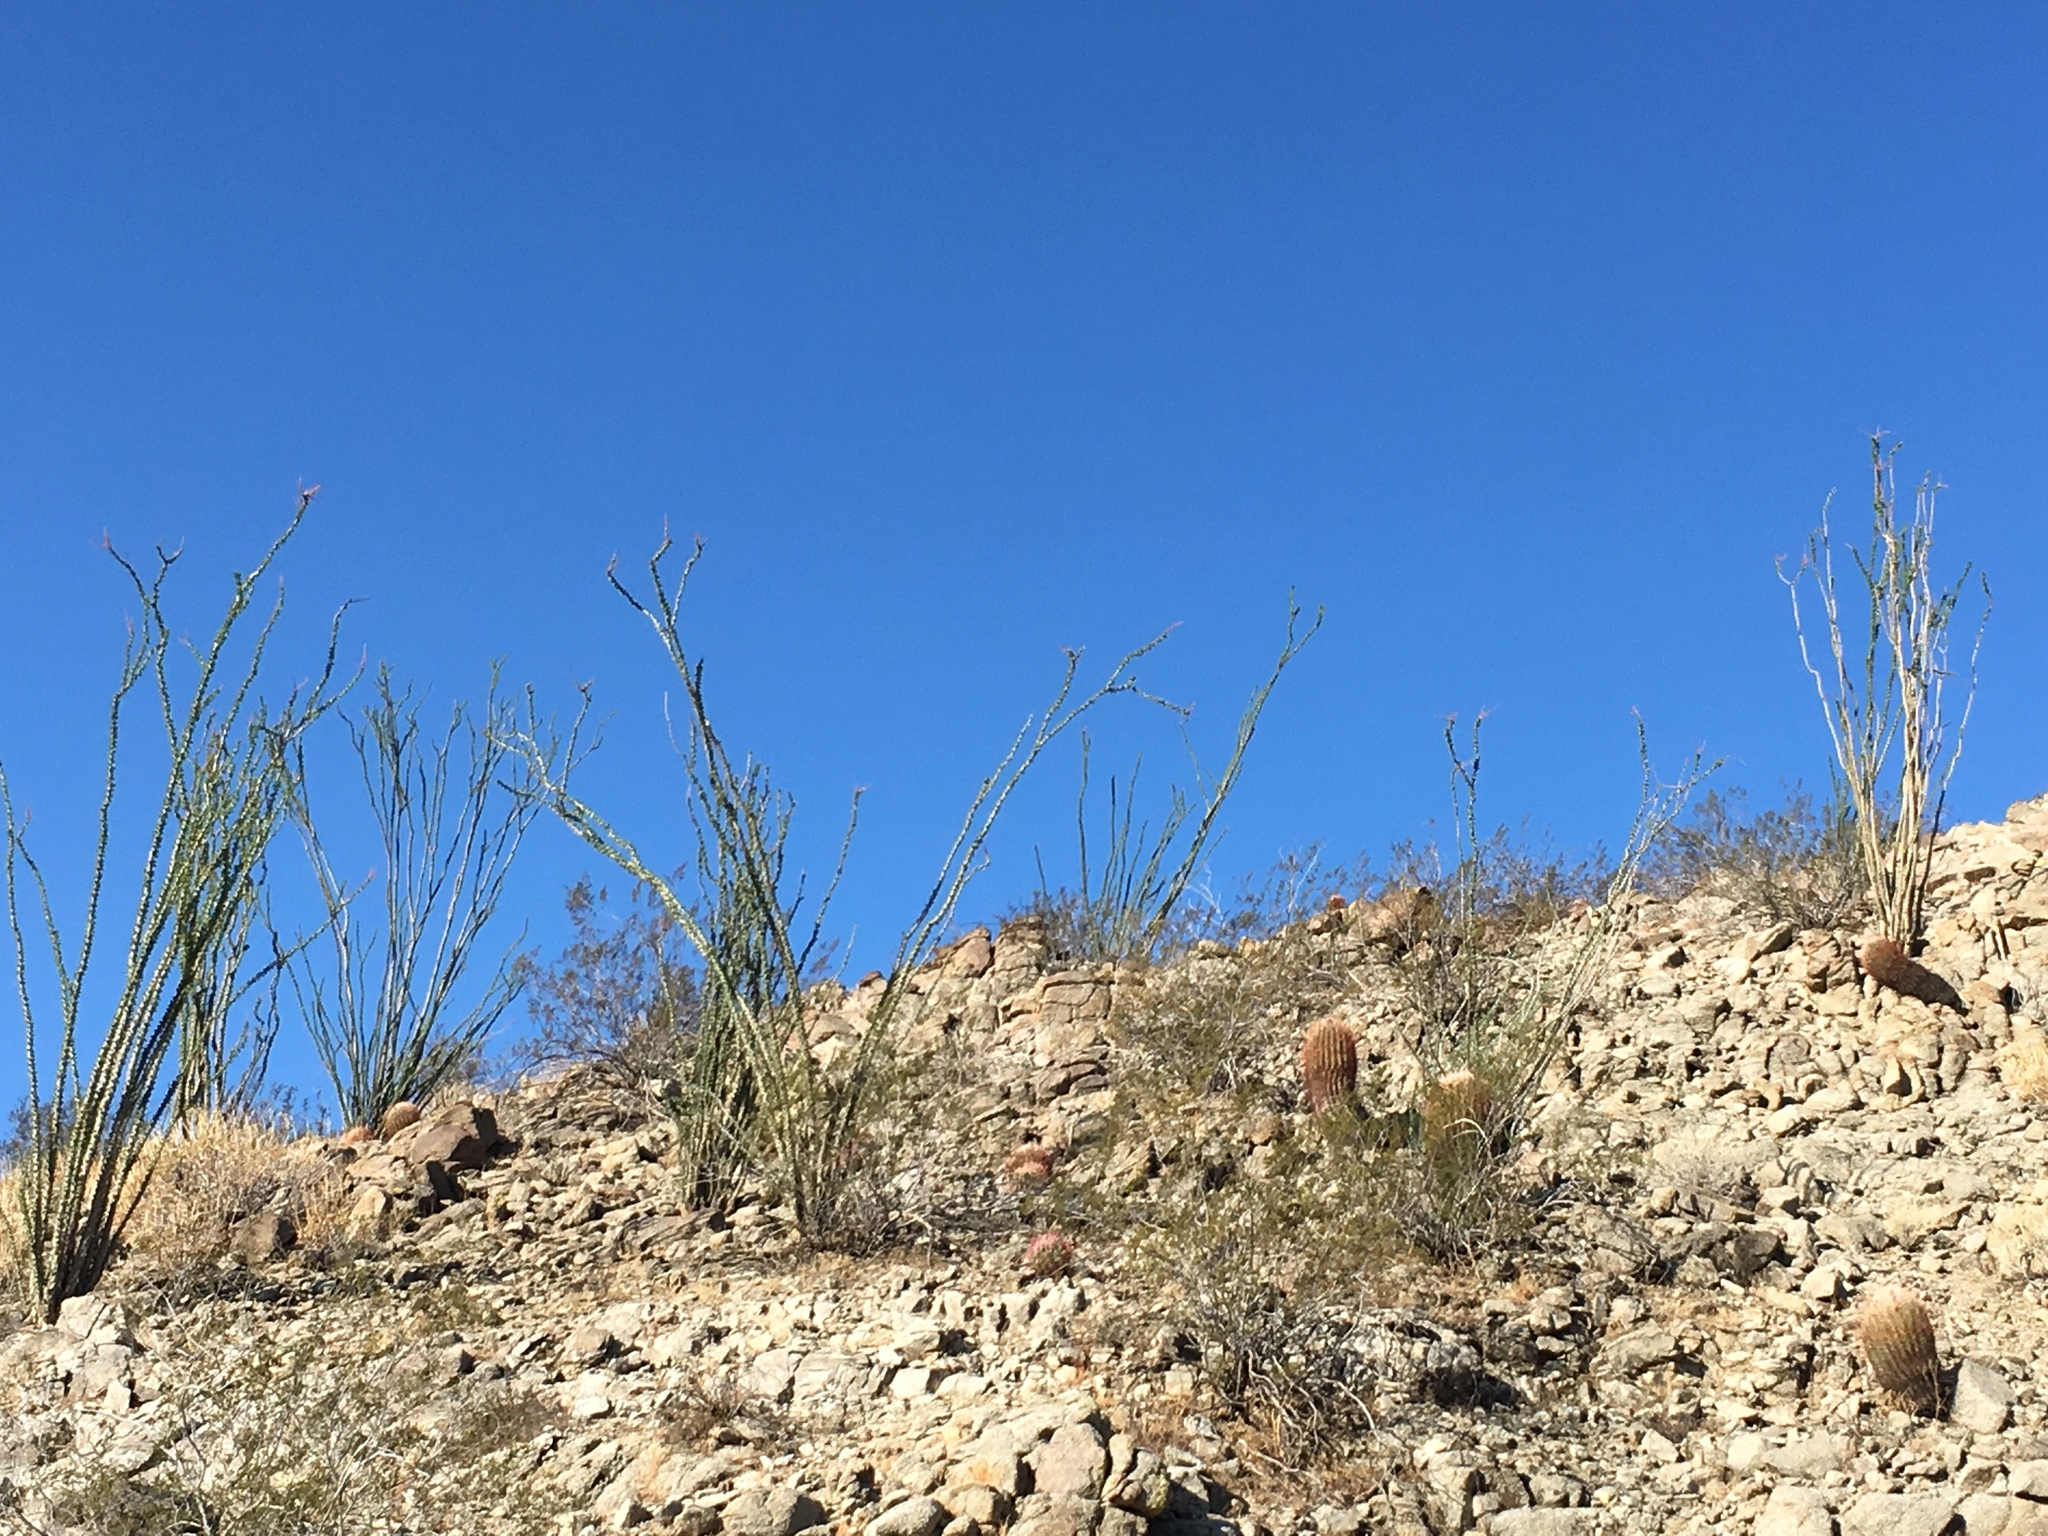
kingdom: Plantae
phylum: Tracheophyta
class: Magnoliopsida
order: Ericales
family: Fouquieriaceae
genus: Fouquieria
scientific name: Fouquieria splendens
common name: Vine-cactus
